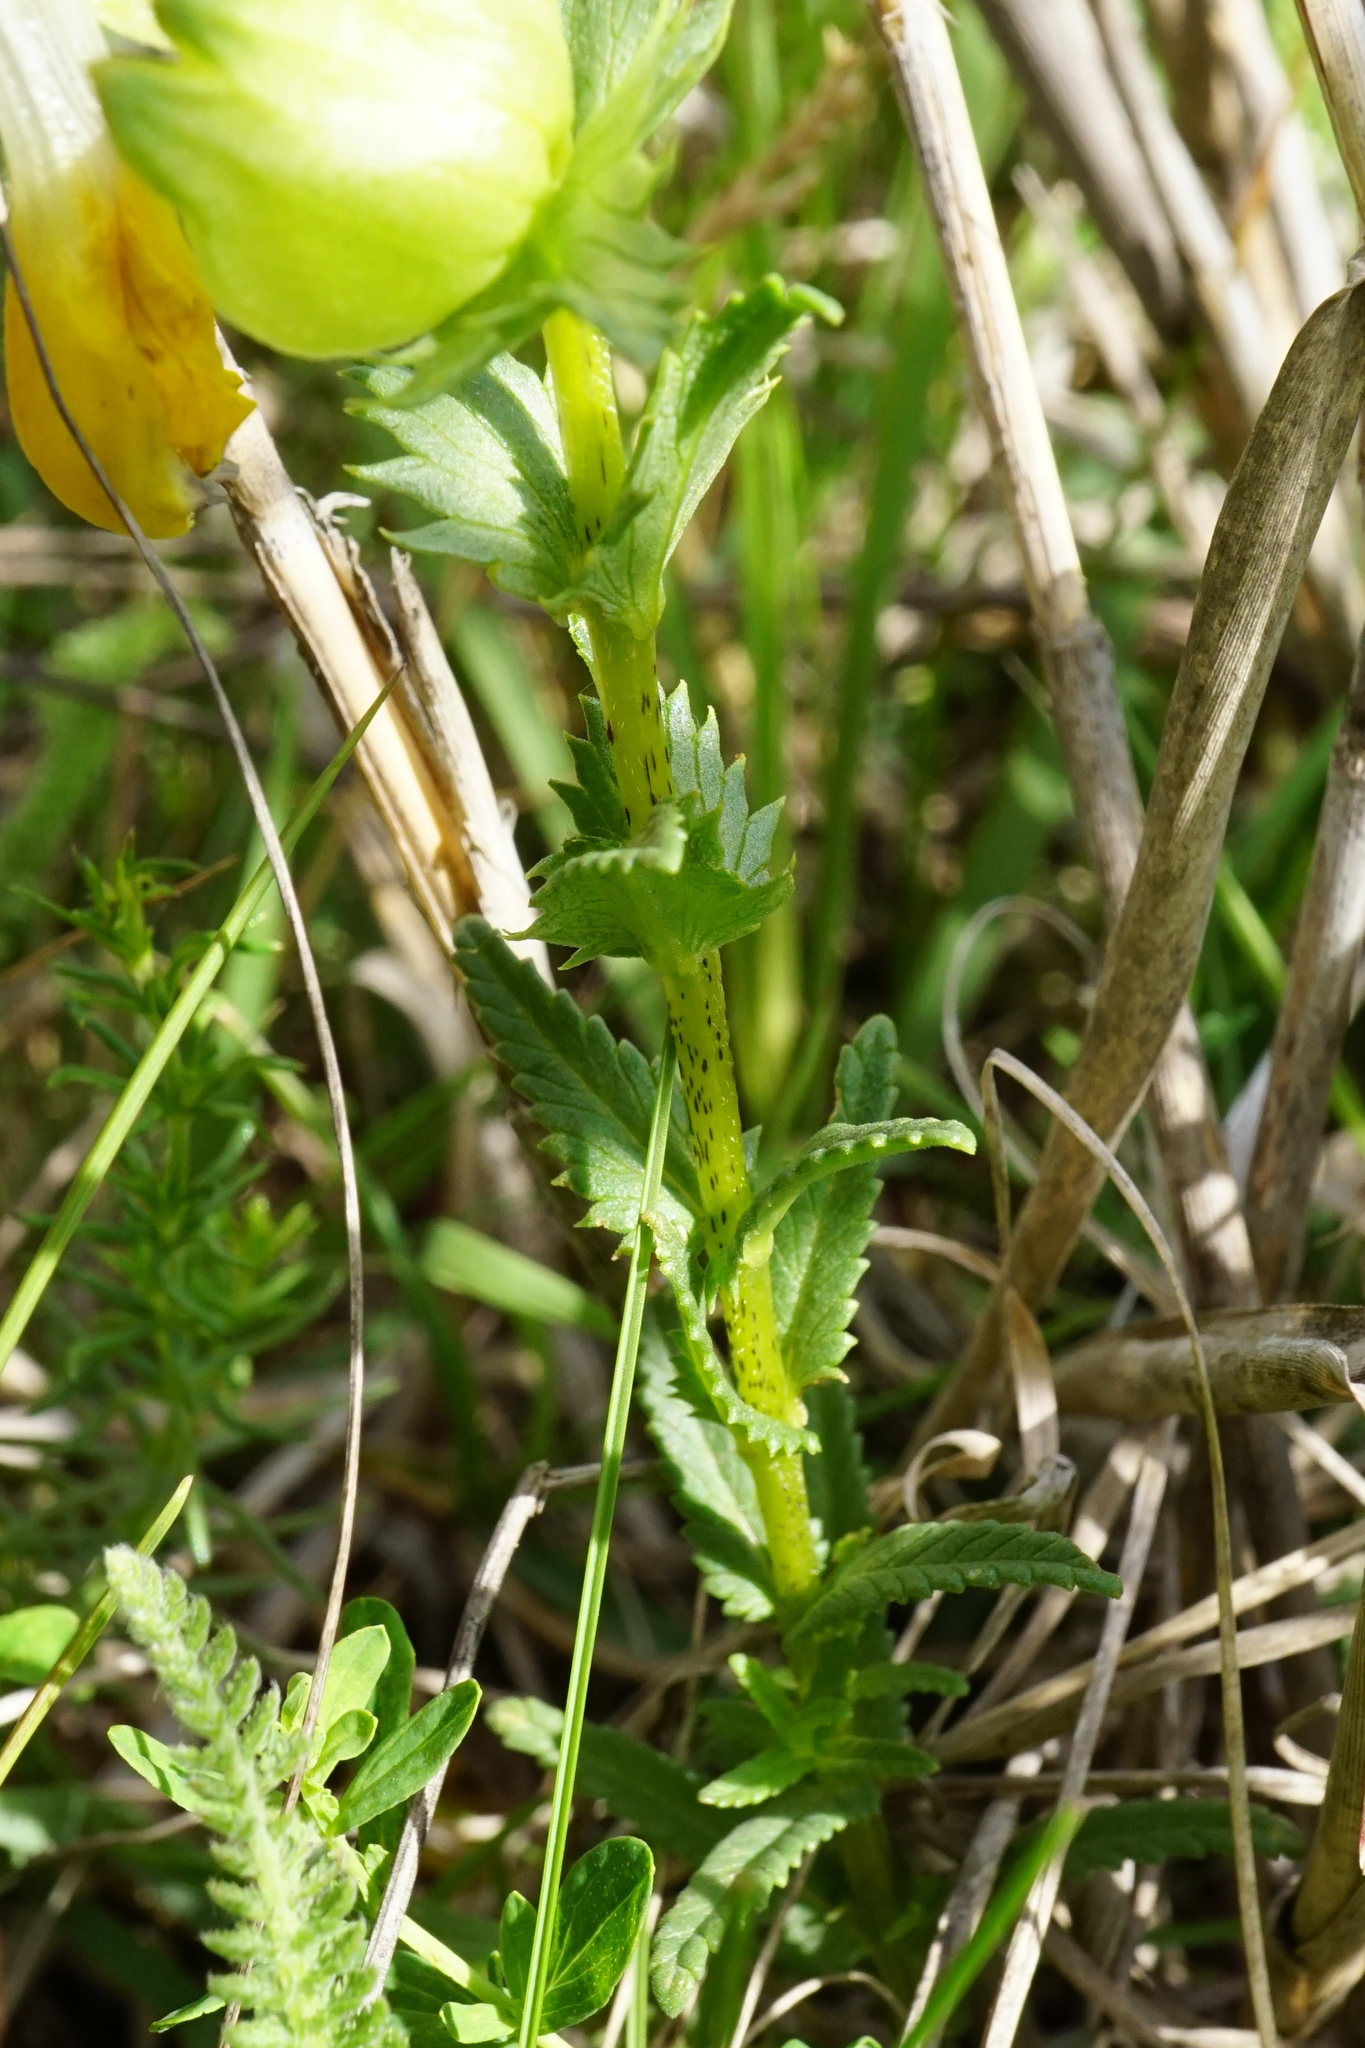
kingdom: Plantae
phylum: Tracheophyta
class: Magnoliopsida
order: Lamiales
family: Orobanchaceae
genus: Rhinanthus
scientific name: Rhinanthus borbasii
